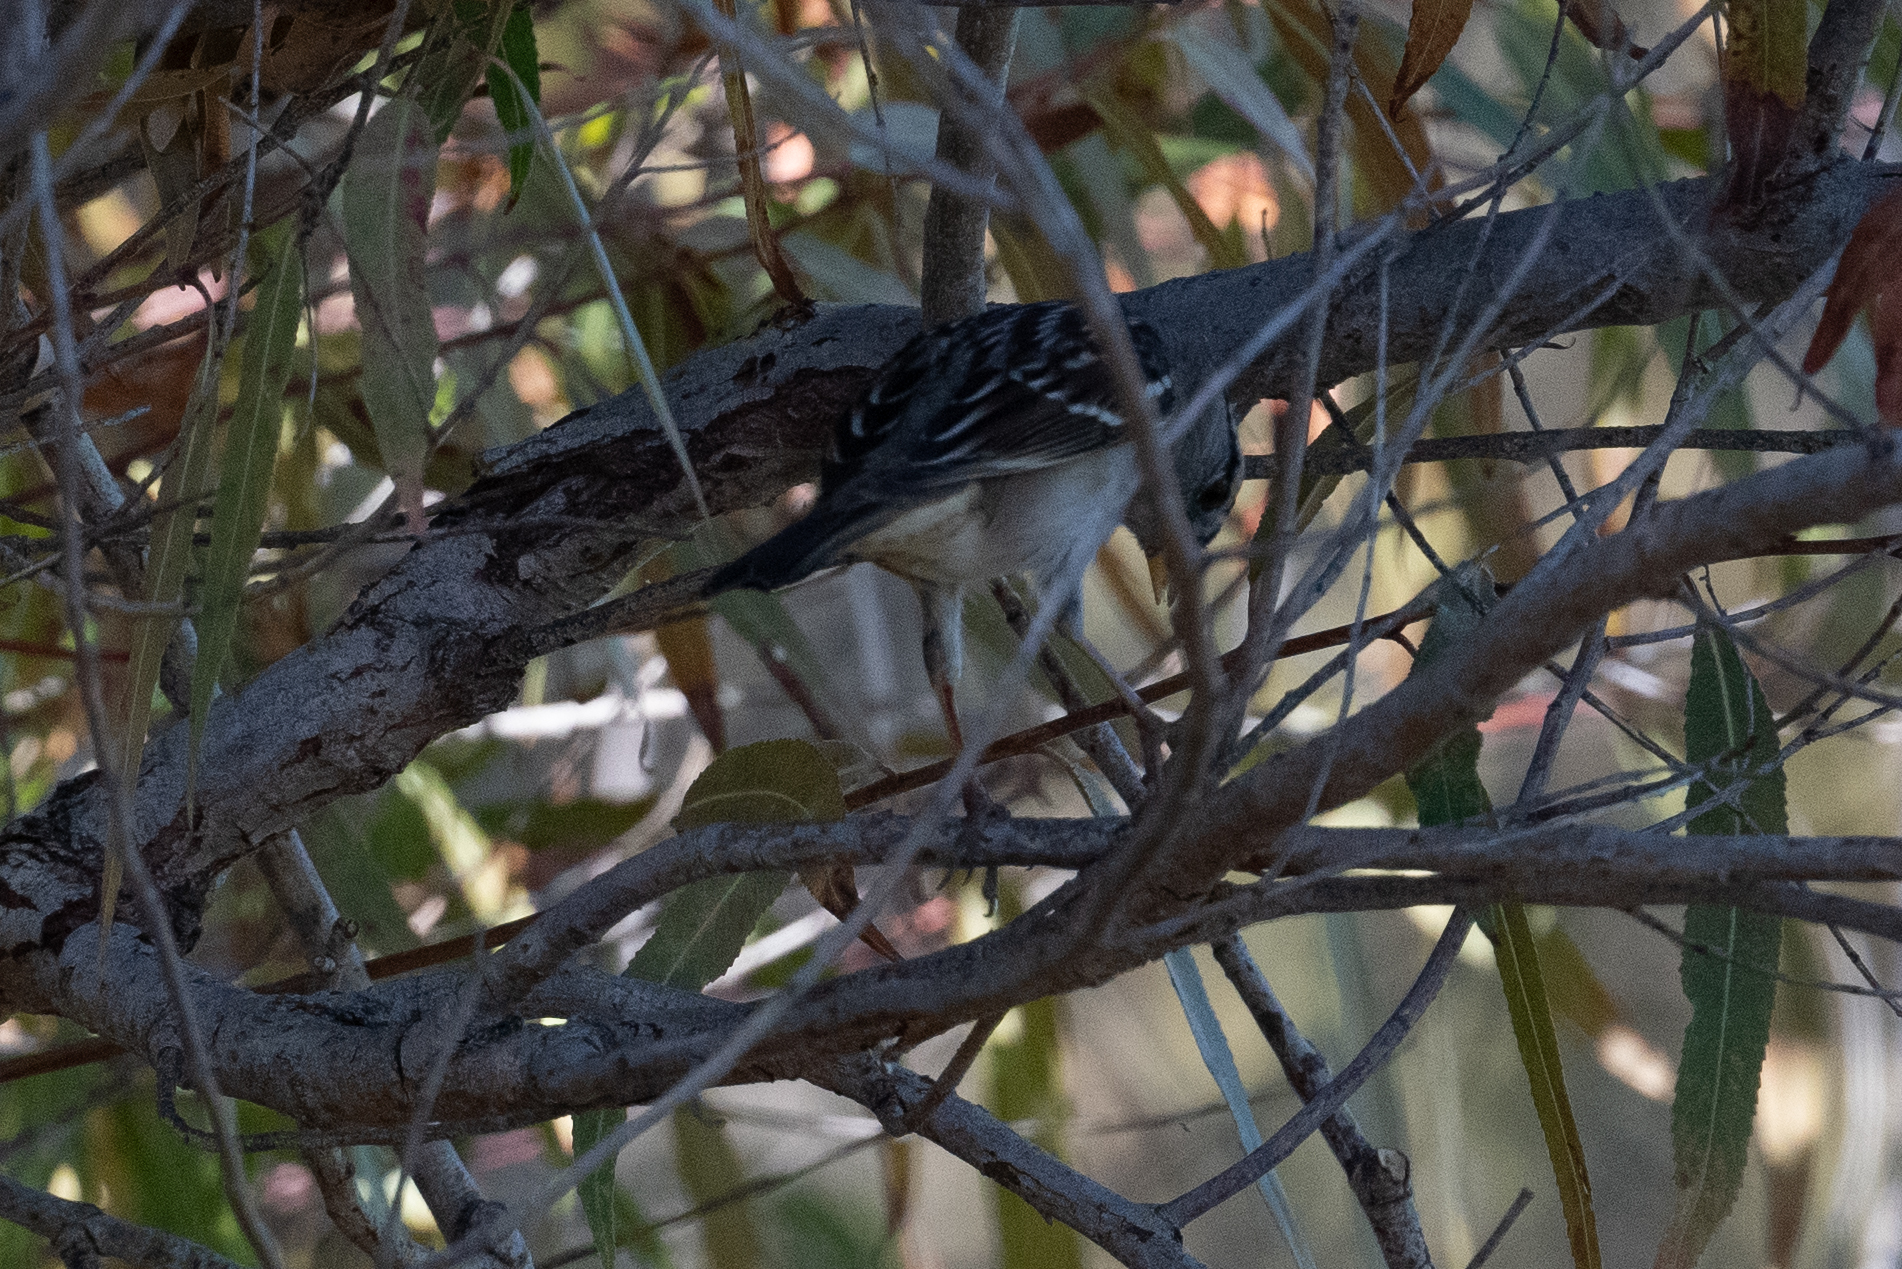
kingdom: Animalia
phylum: Chordata
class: Aves
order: Passeriformes
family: Passerellidae
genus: Zonotrichia
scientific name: Zonotrichia leucophrys
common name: White-crowned sparrow
